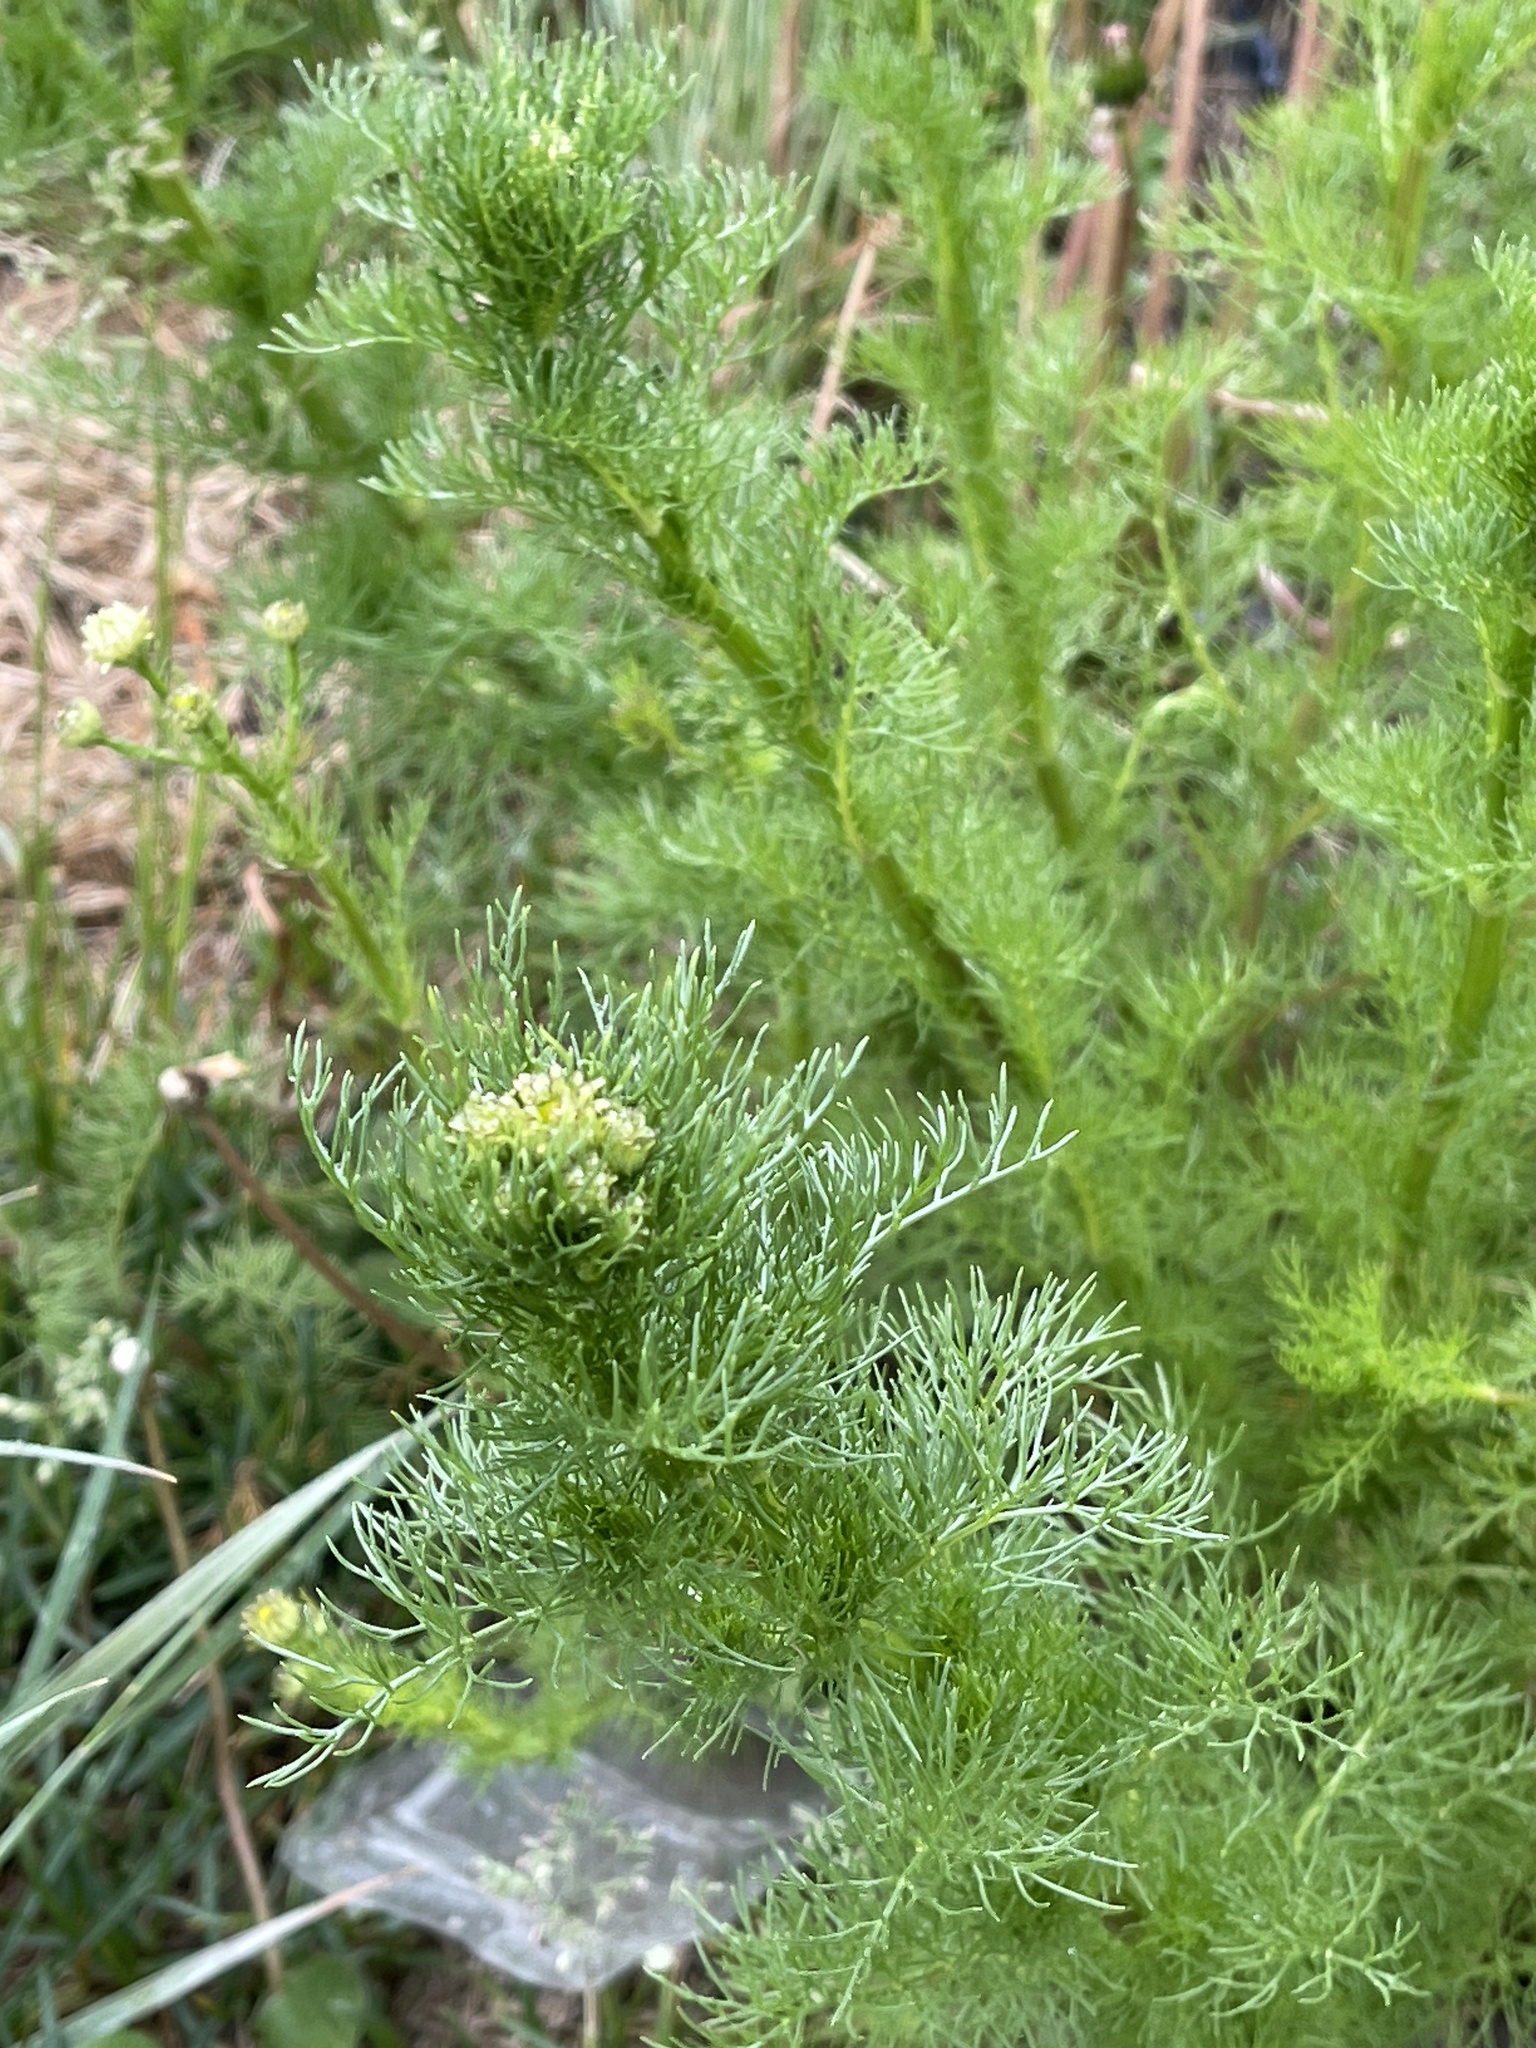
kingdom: Plantae
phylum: Tracheophyta
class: Magnoliopsida
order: Asterales
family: Asteraceae
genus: Tripleurospermum
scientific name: Tripleurospermum inodorum
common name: Scentless mayweed
